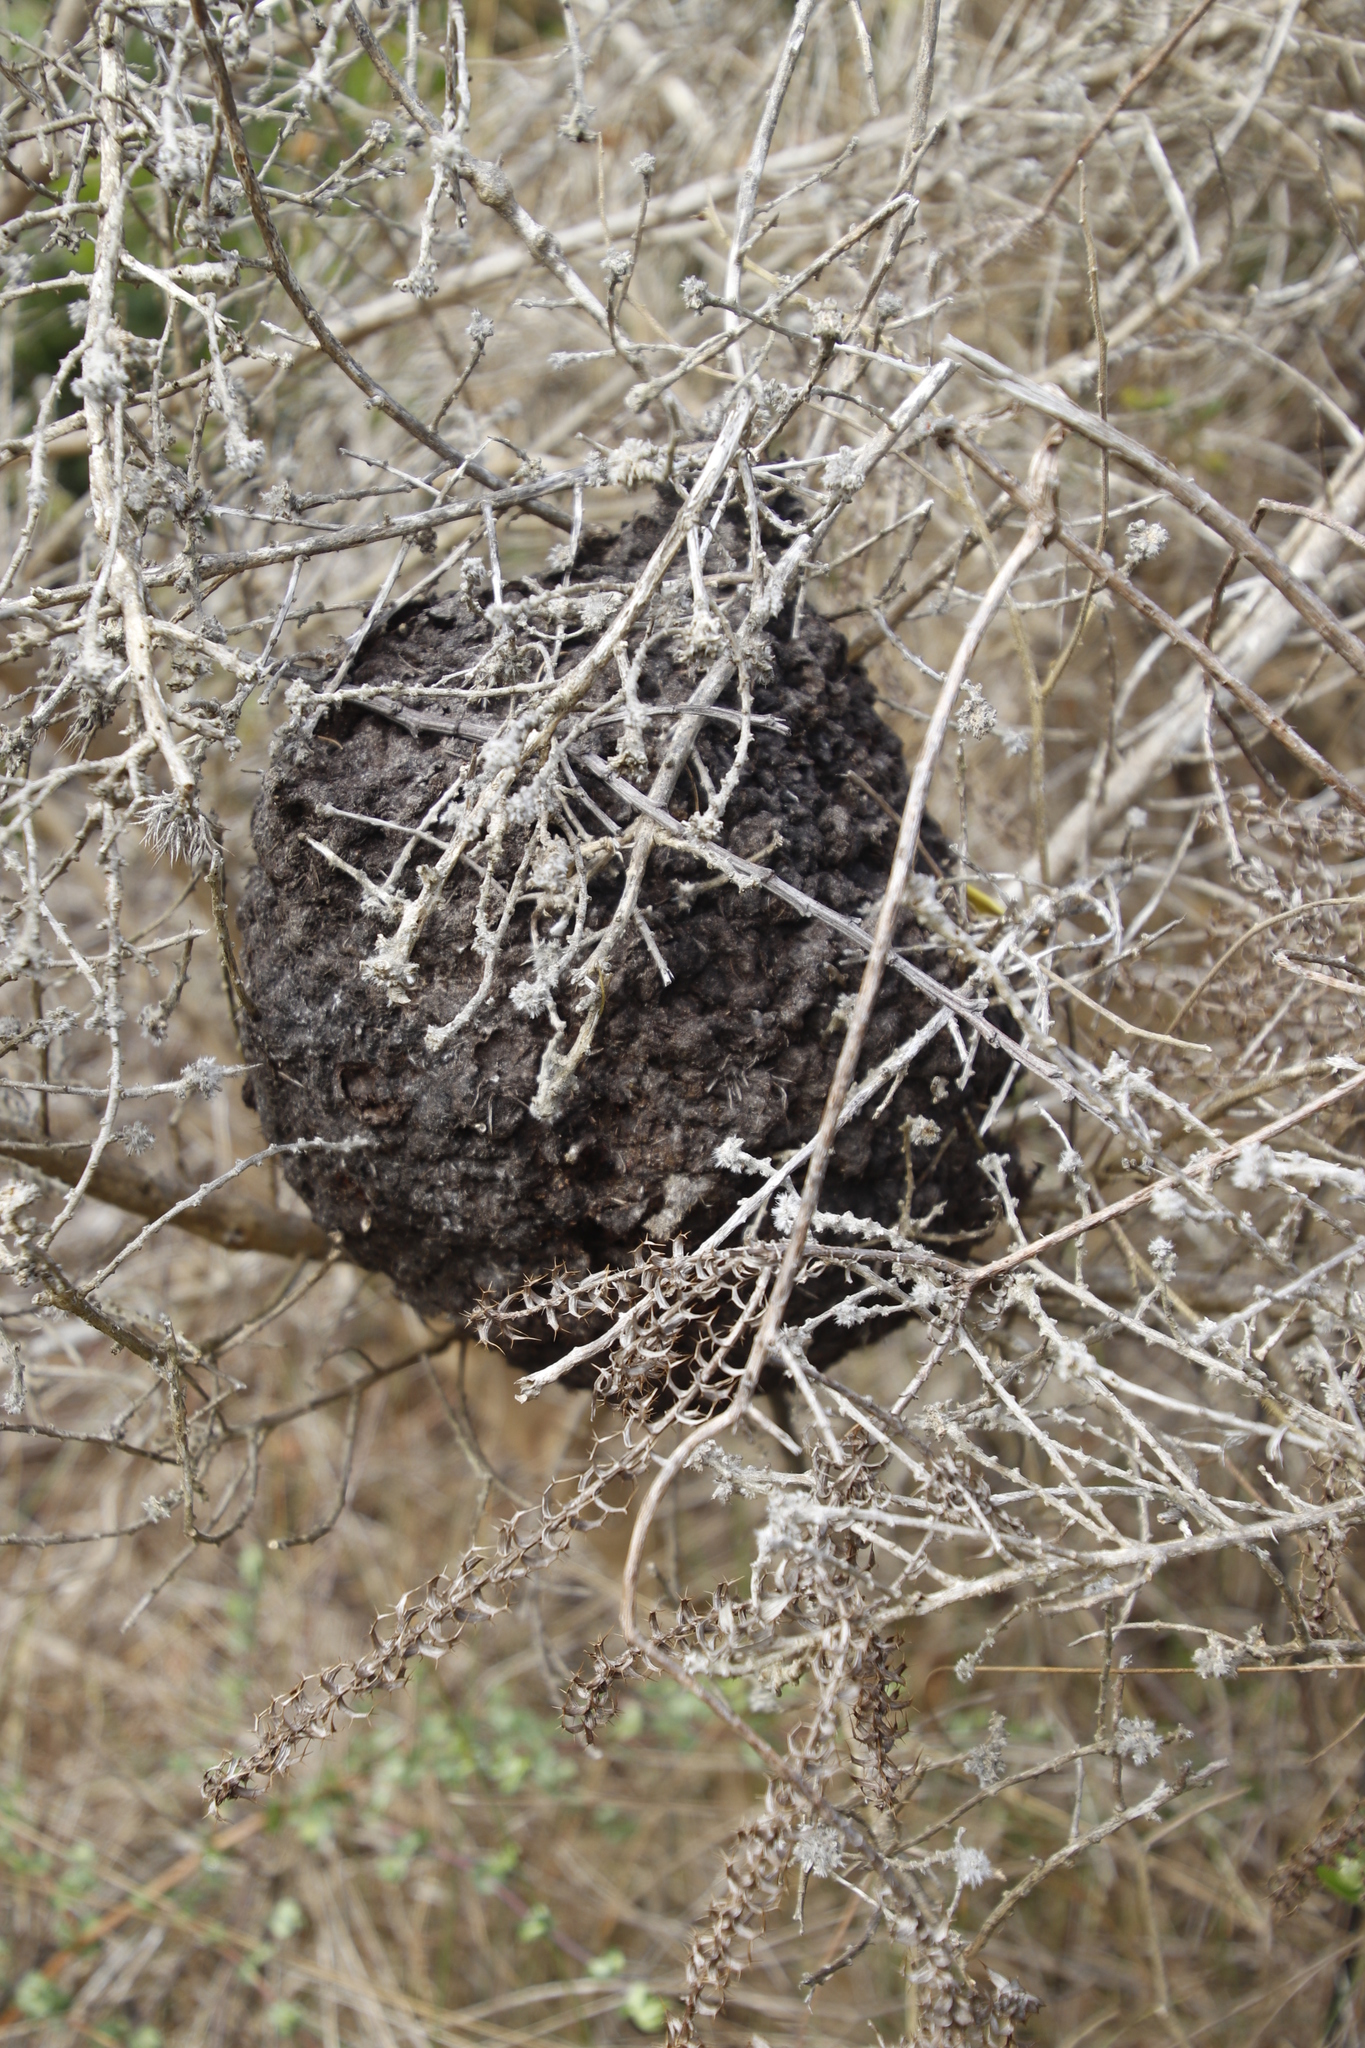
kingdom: Animalia
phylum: Arthropoda
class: Insecta
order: Hymenoptera
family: Formicidae
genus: Crematogaster
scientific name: Crematogaster peringueyi
